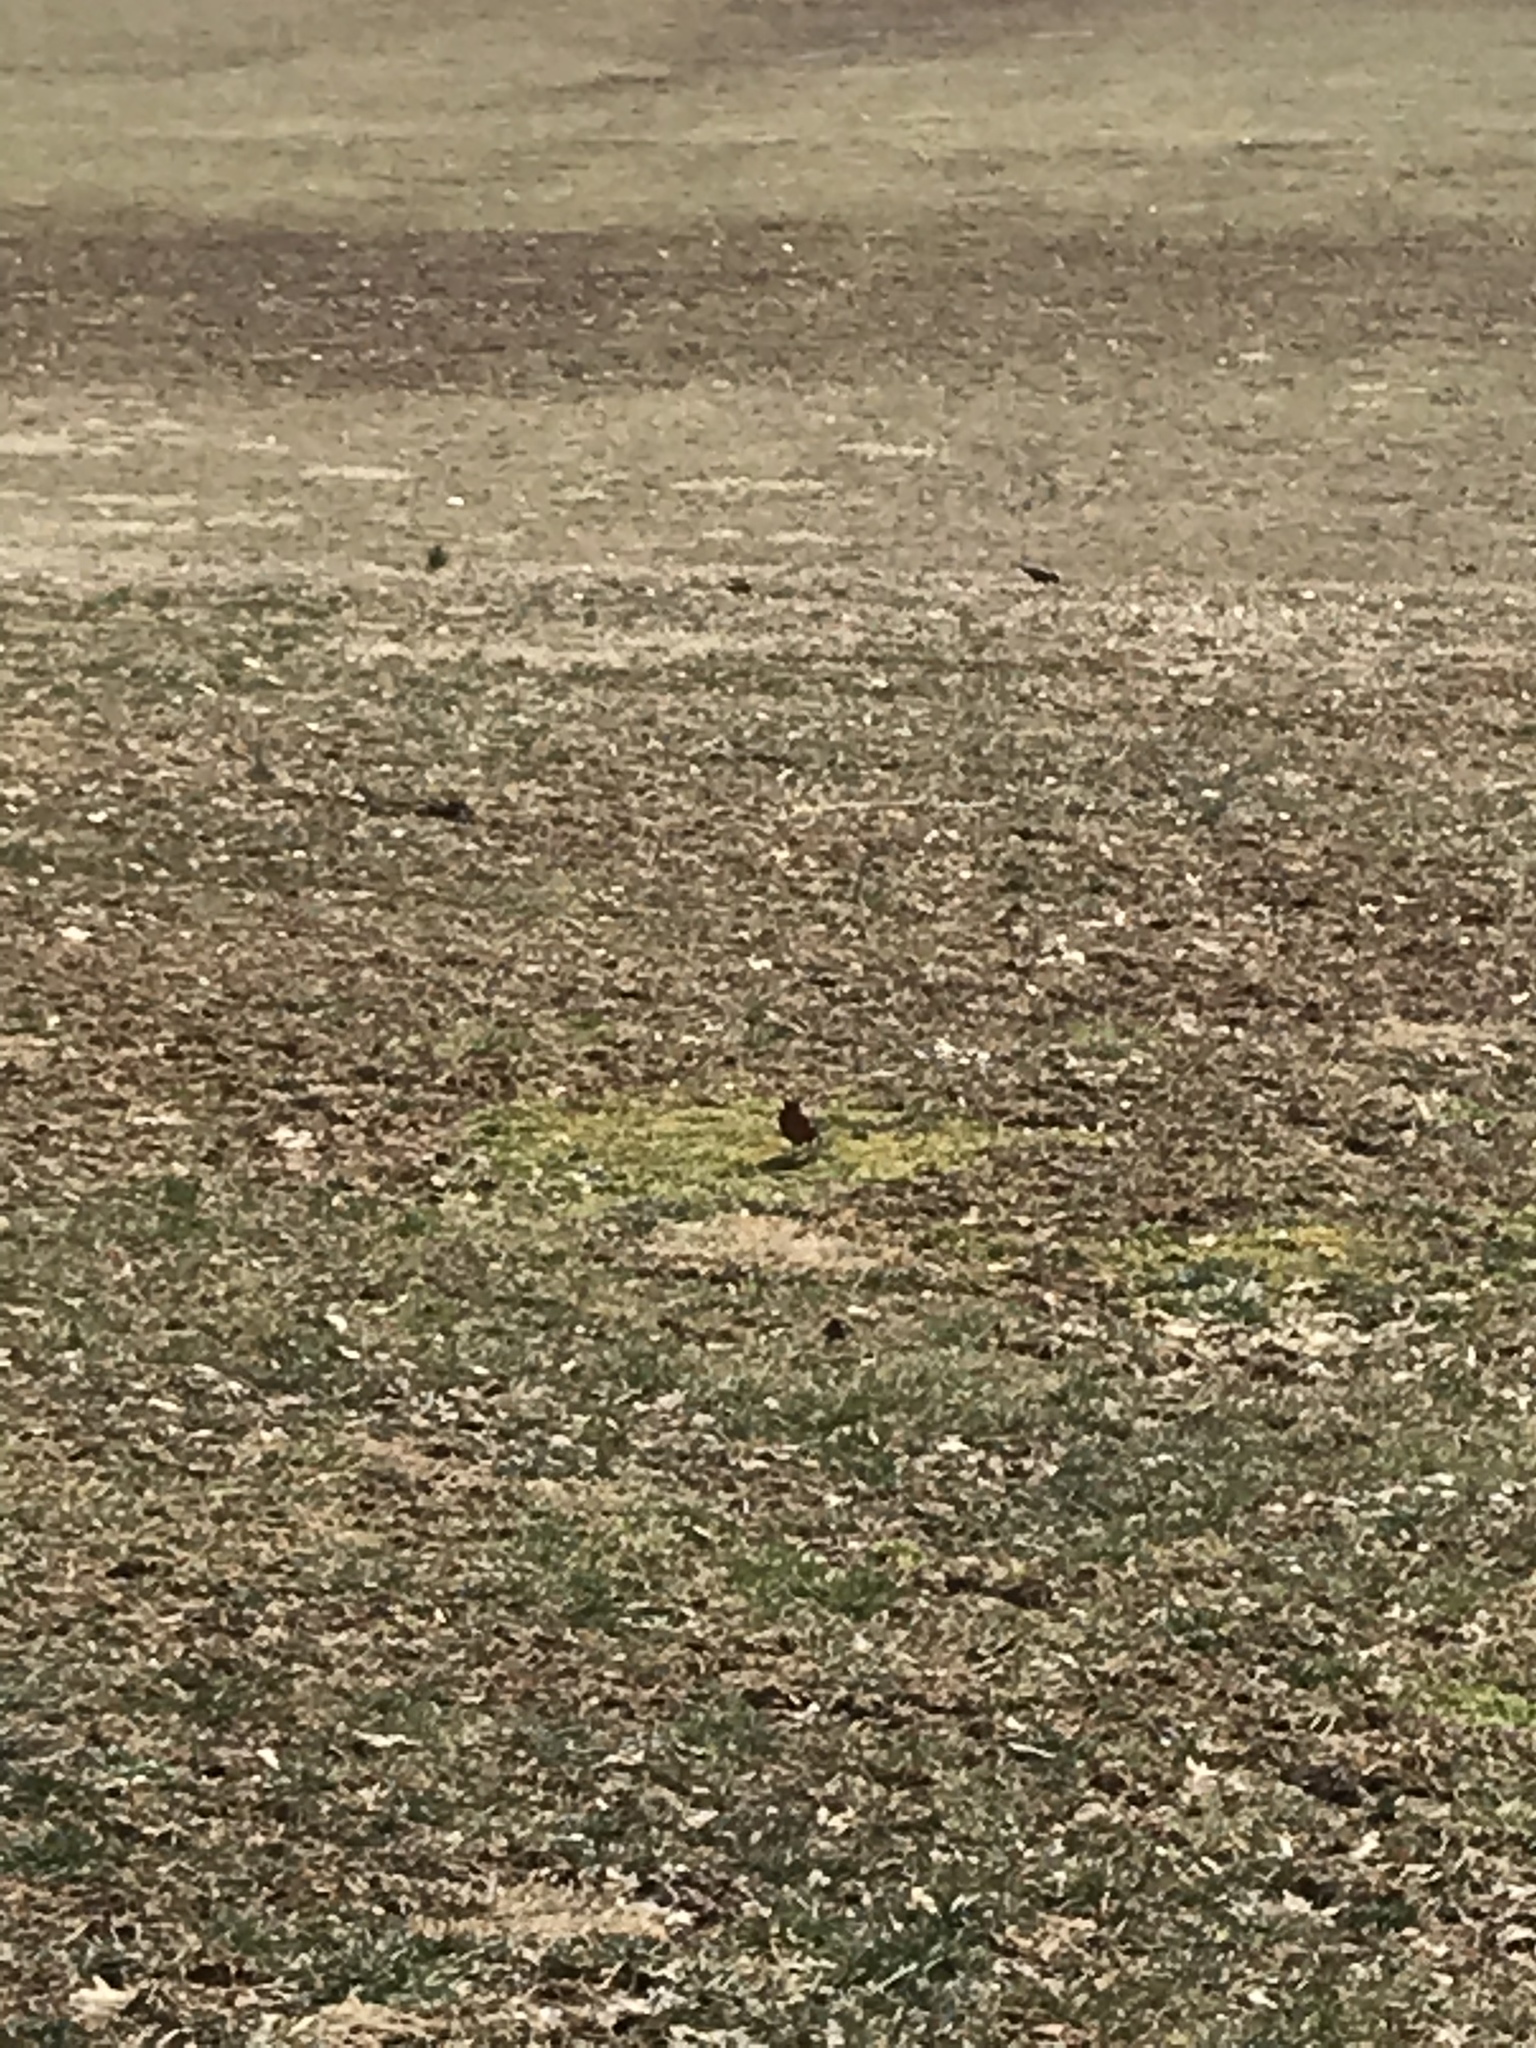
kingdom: Animalia
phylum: Chordata
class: Aves
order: Passeriformes
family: Turdidae
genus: Turdus
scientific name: Turdus migratorius
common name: American robin
